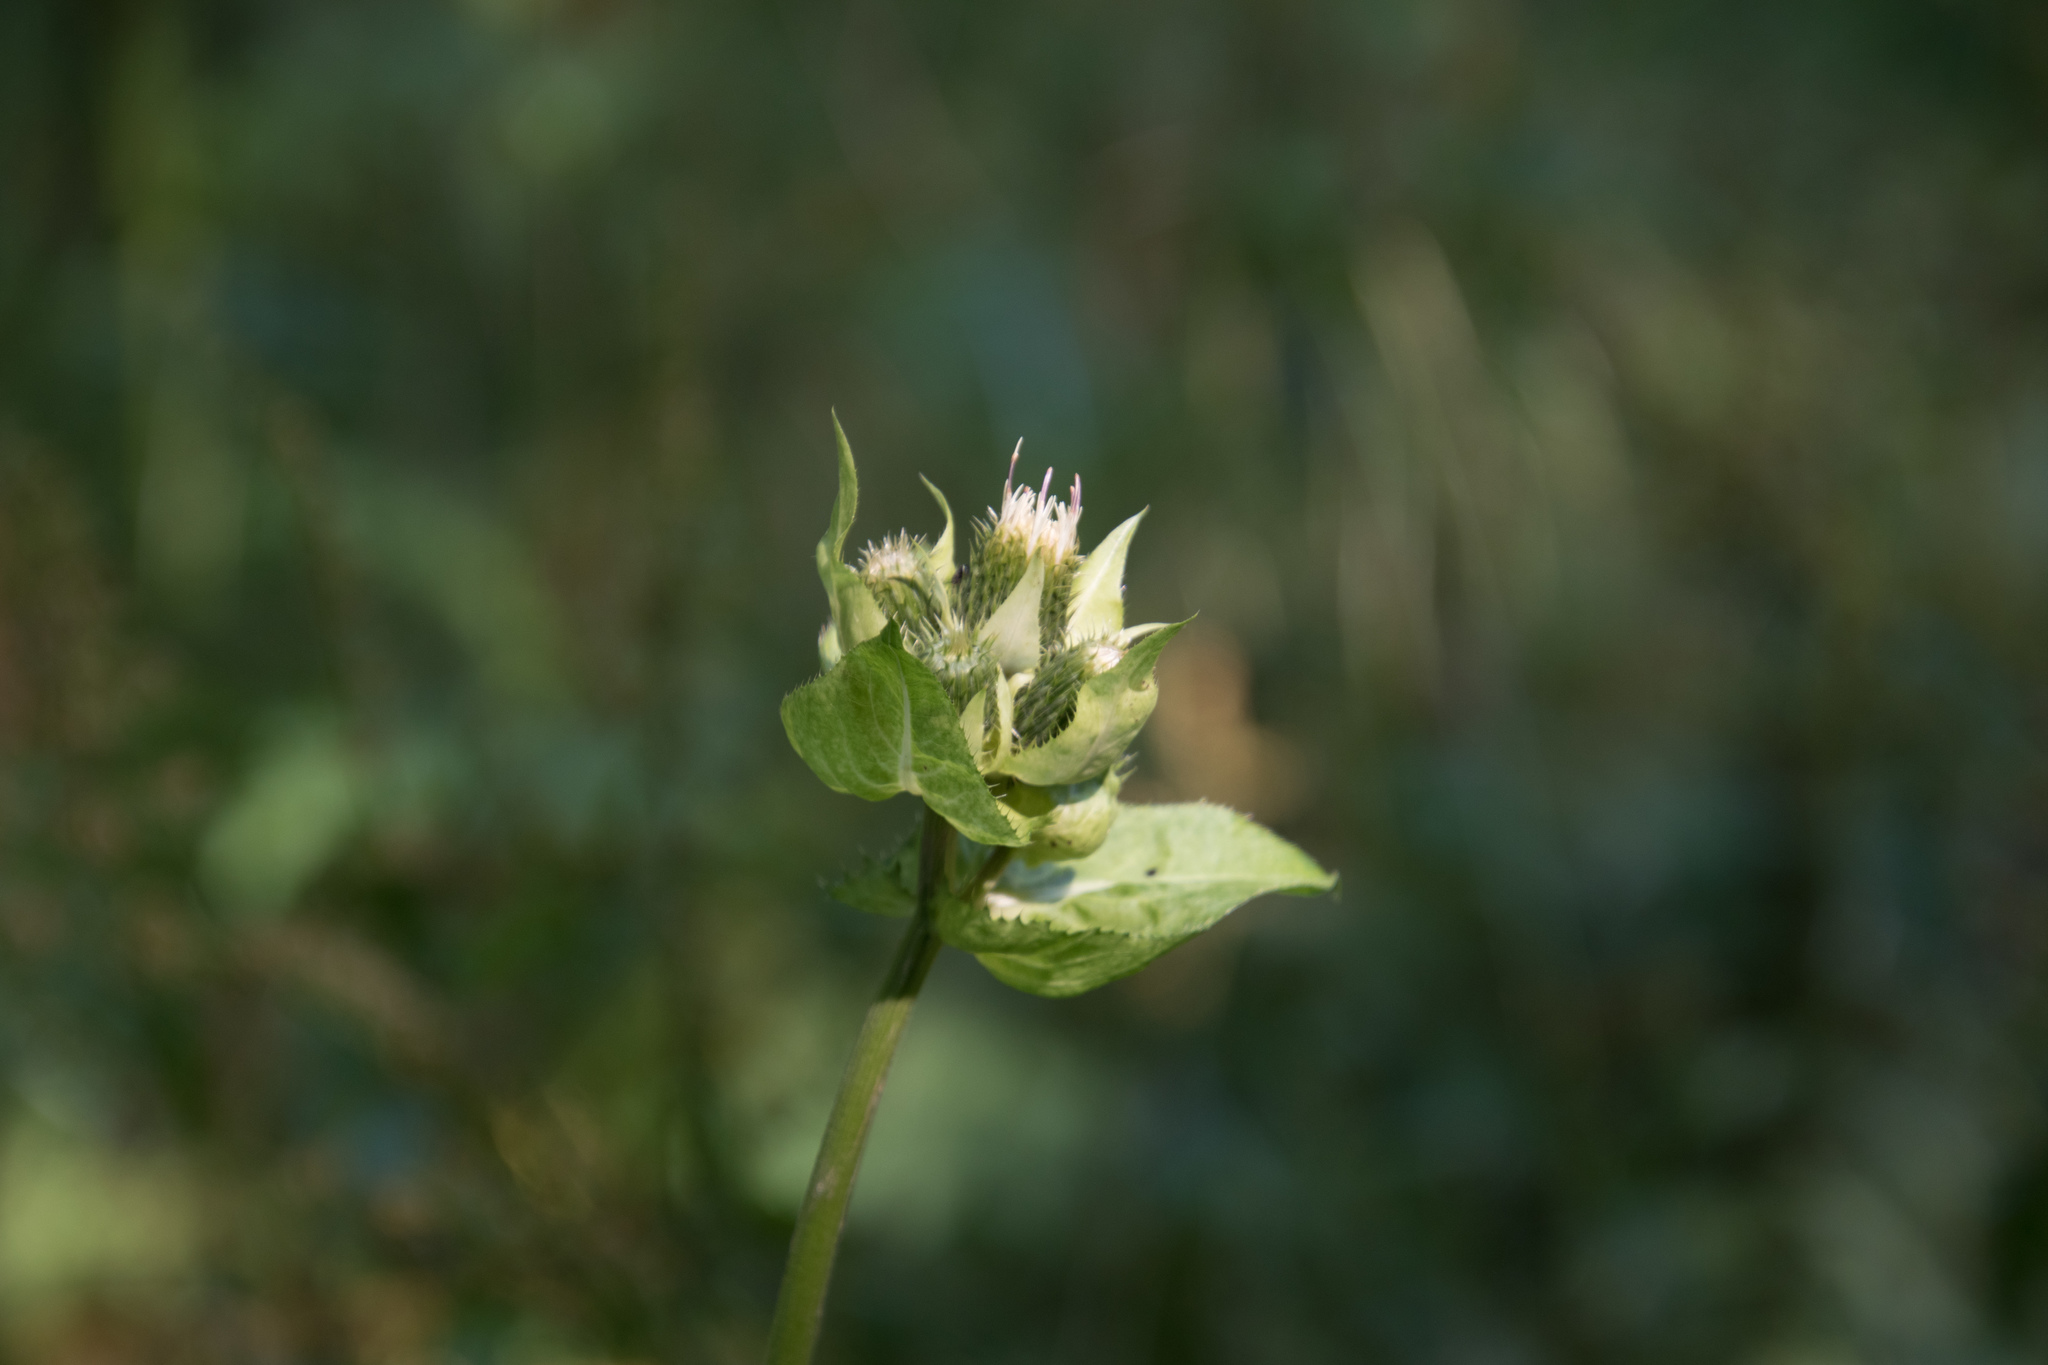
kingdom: Plantae
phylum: Tracheophyta
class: Magnoliopsida
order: Asterales
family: Asteraceae
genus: Cirsium
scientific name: Cirsium oleraceum
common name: Cabbage thistle
